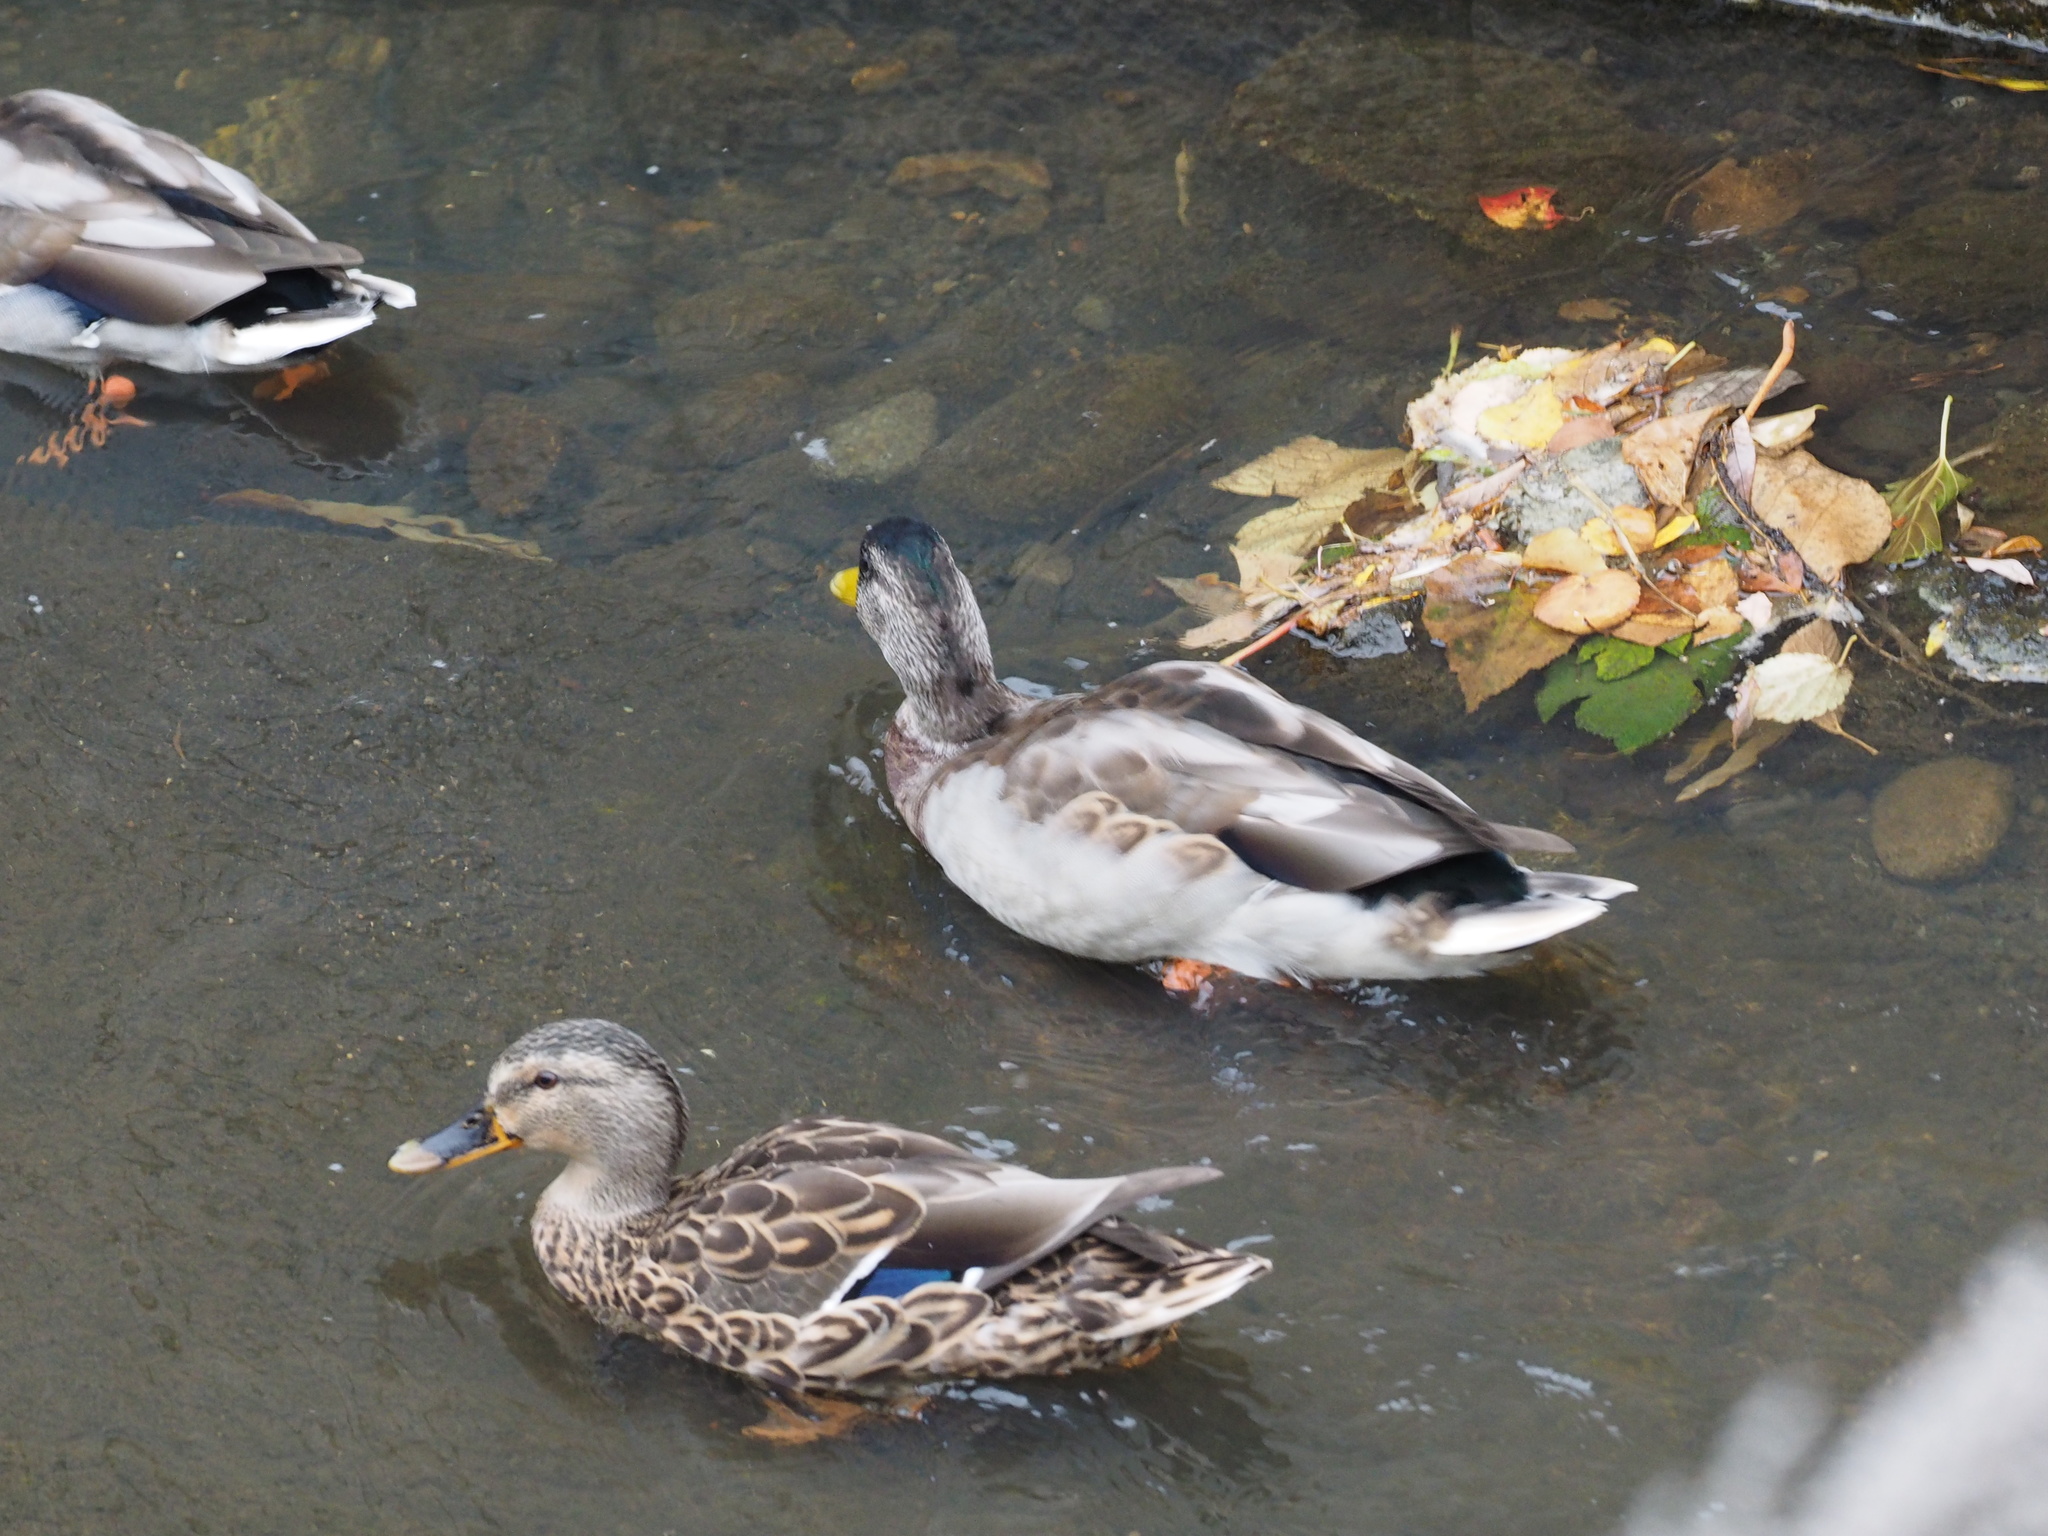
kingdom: Animalia
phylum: Chordata
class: Aves
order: Anseriformes
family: Anatidae
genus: Anas
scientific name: Anas platyrhynchos
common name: Mallard
